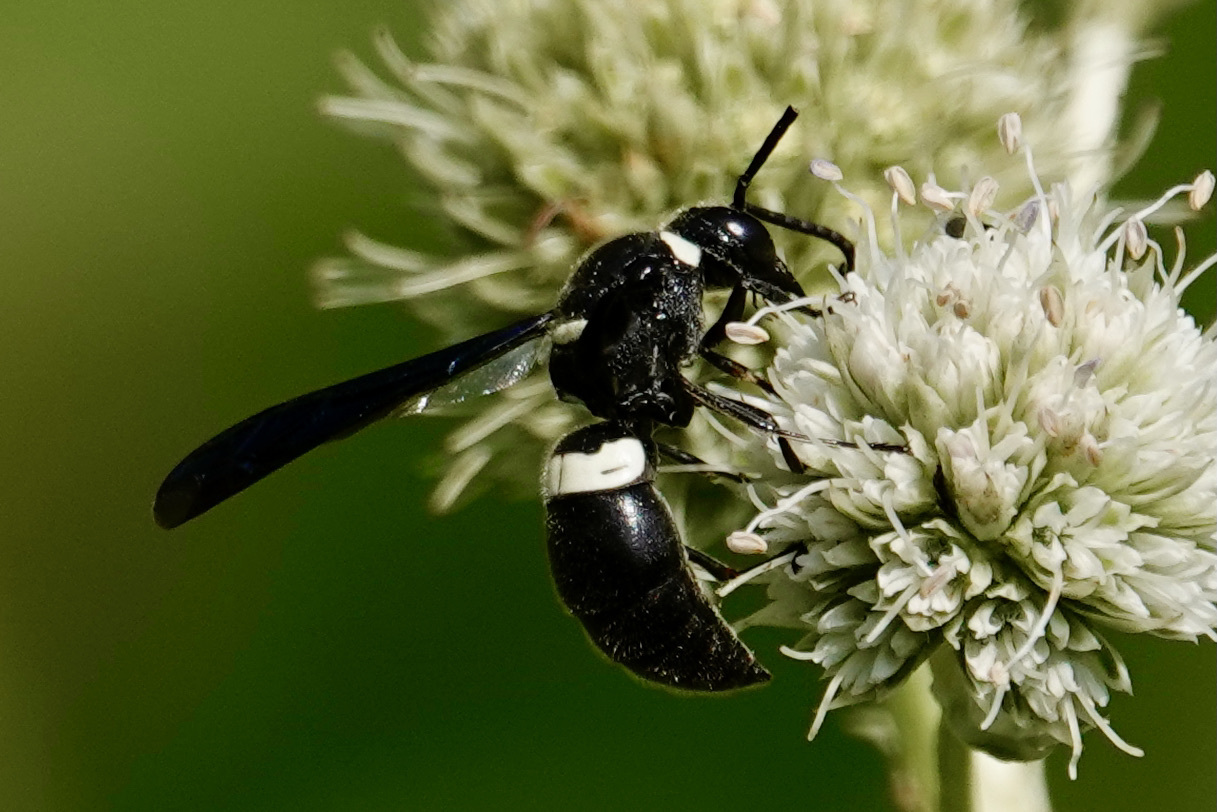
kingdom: Animalia
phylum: Arthropoda
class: Insecta
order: Hymenoptera
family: Eumenidae
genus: Monobia
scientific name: Monobia quadridens
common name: Four-toothed mason wasp
